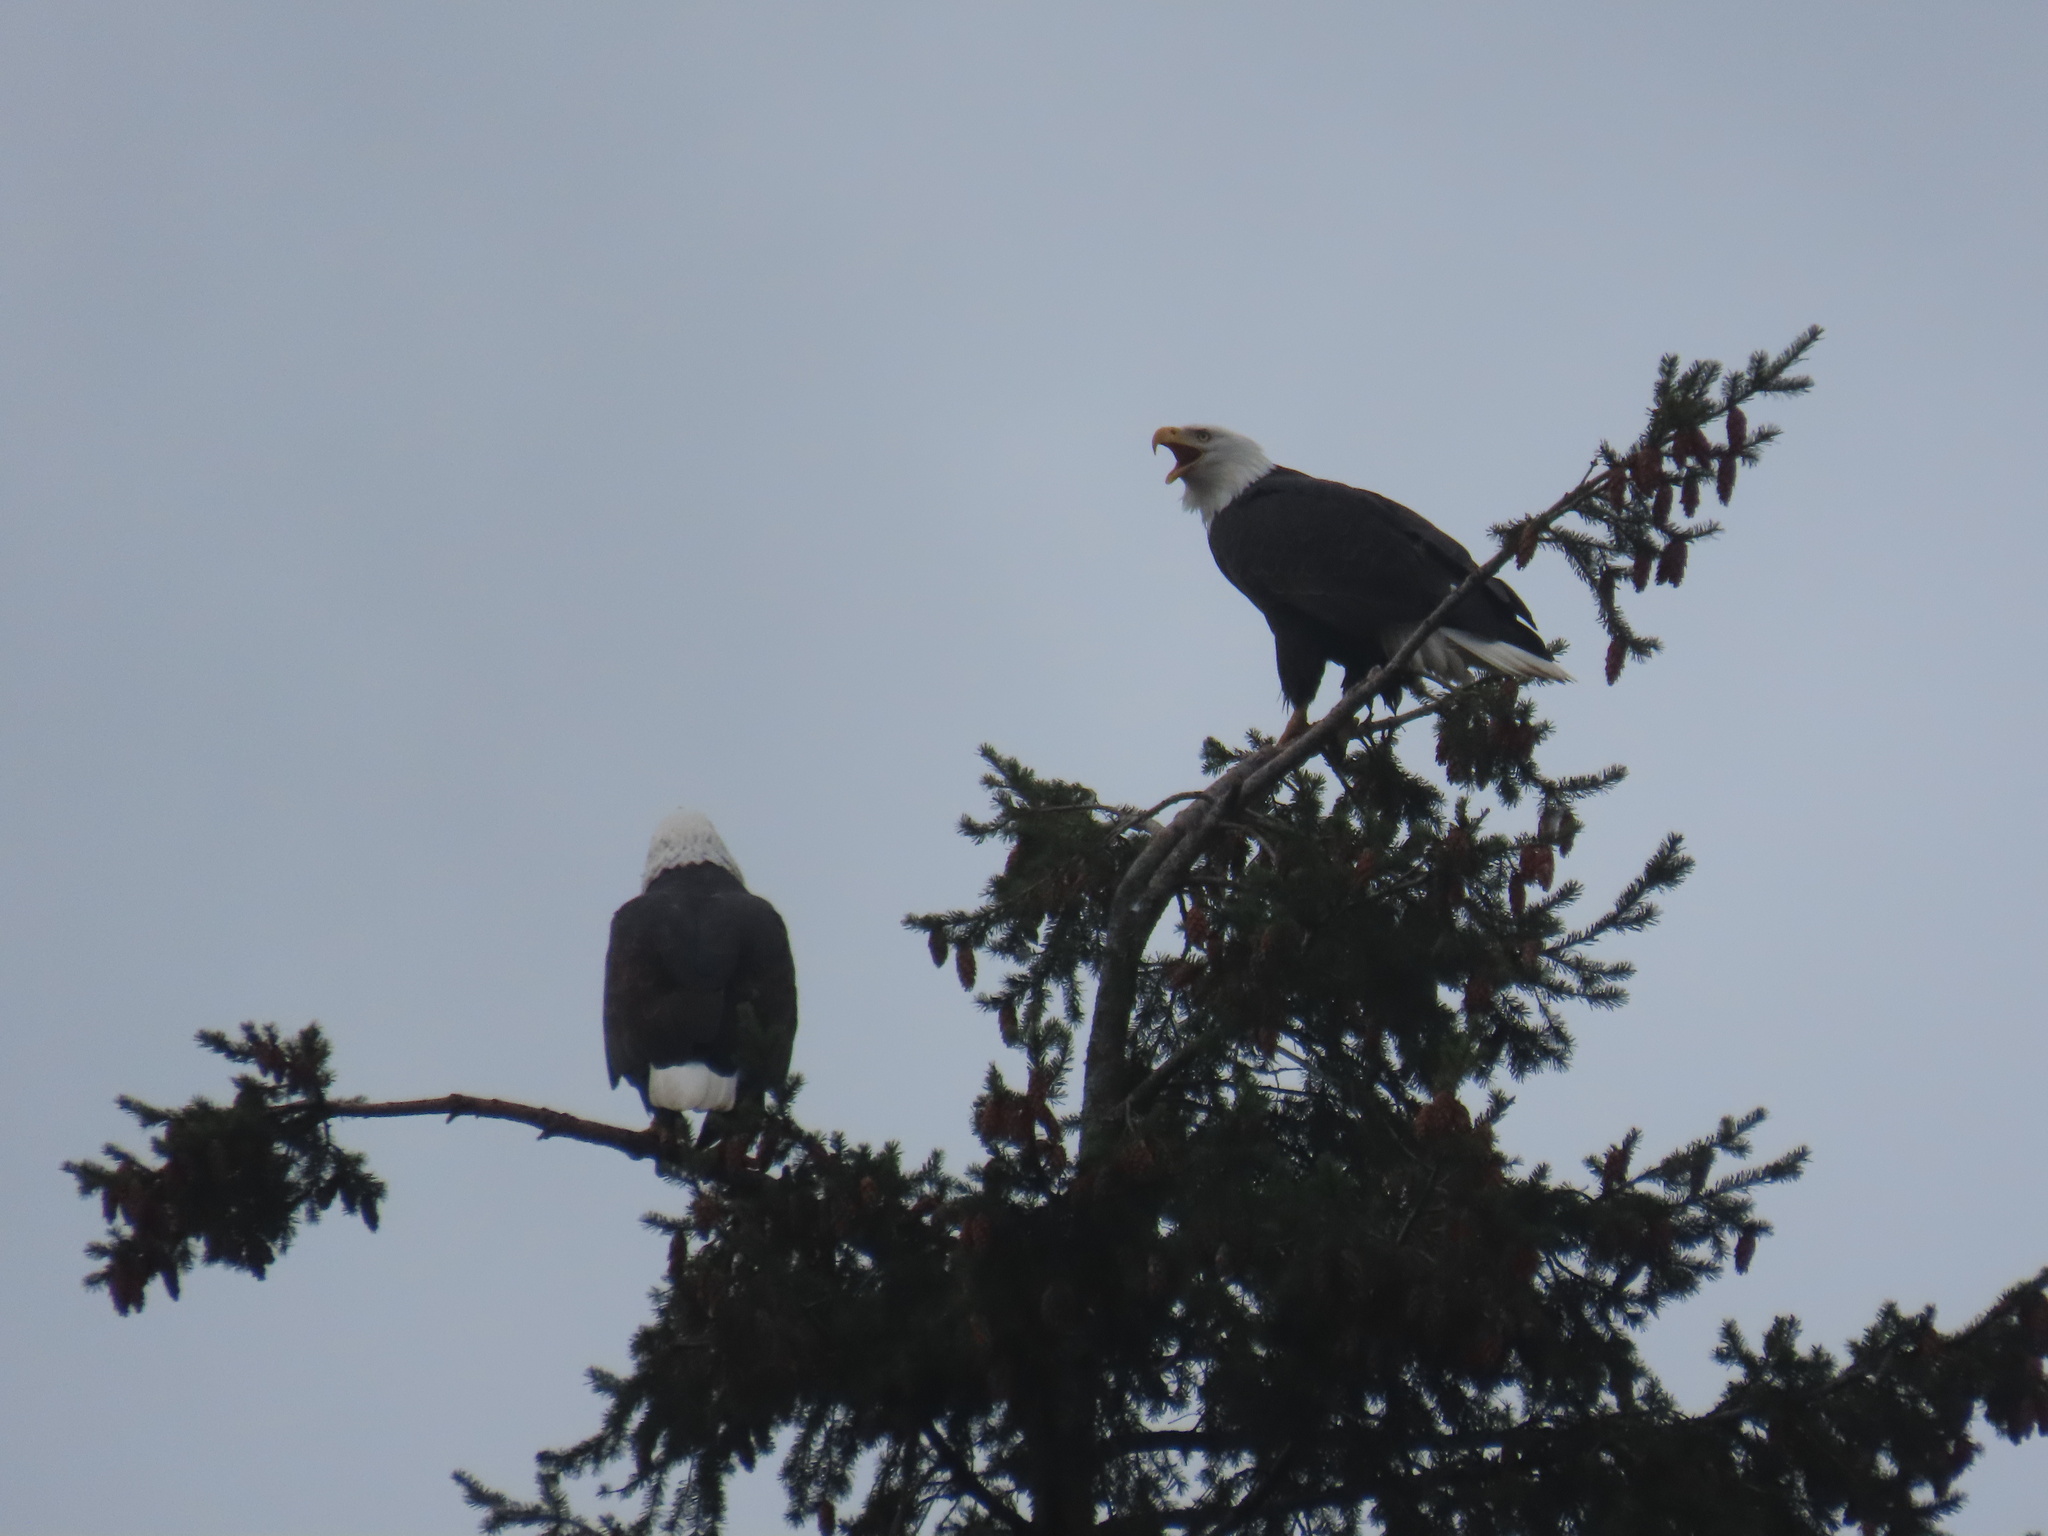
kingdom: Animalia
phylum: Chordata
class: Aves
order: Accipitriformes
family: Accipitridae
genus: Haliaeetus
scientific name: Haliaeetus leucocephalus
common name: Bald eagle
